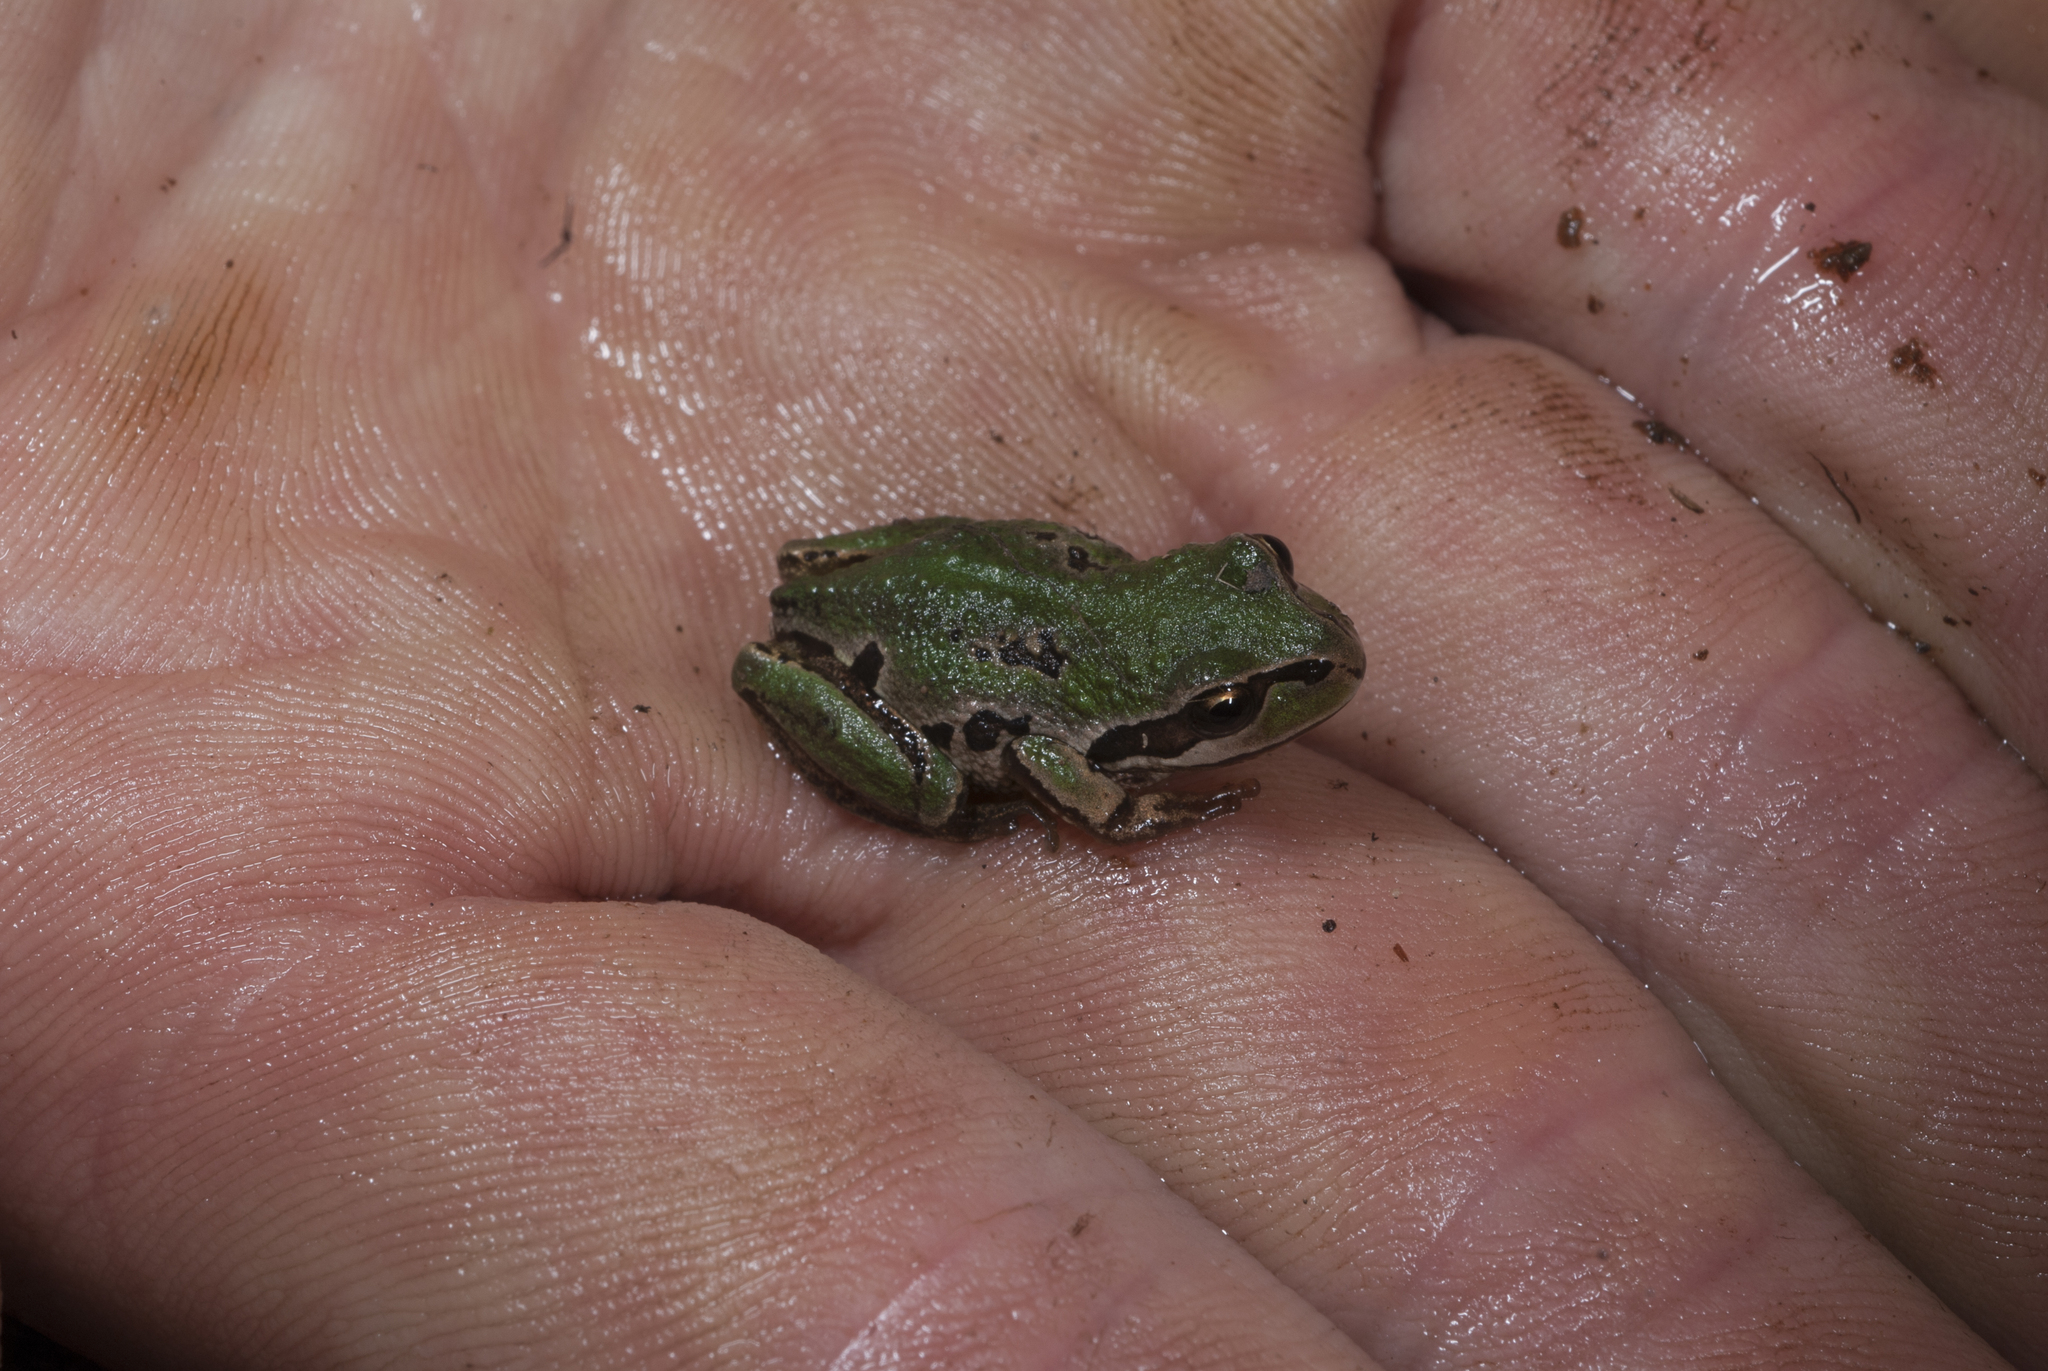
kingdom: Animalia
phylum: Chordata
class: Amphibia
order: Anura
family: Pelodryadidae
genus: Litoria
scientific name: Litoria verreauxii
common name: Alpine tree frog
